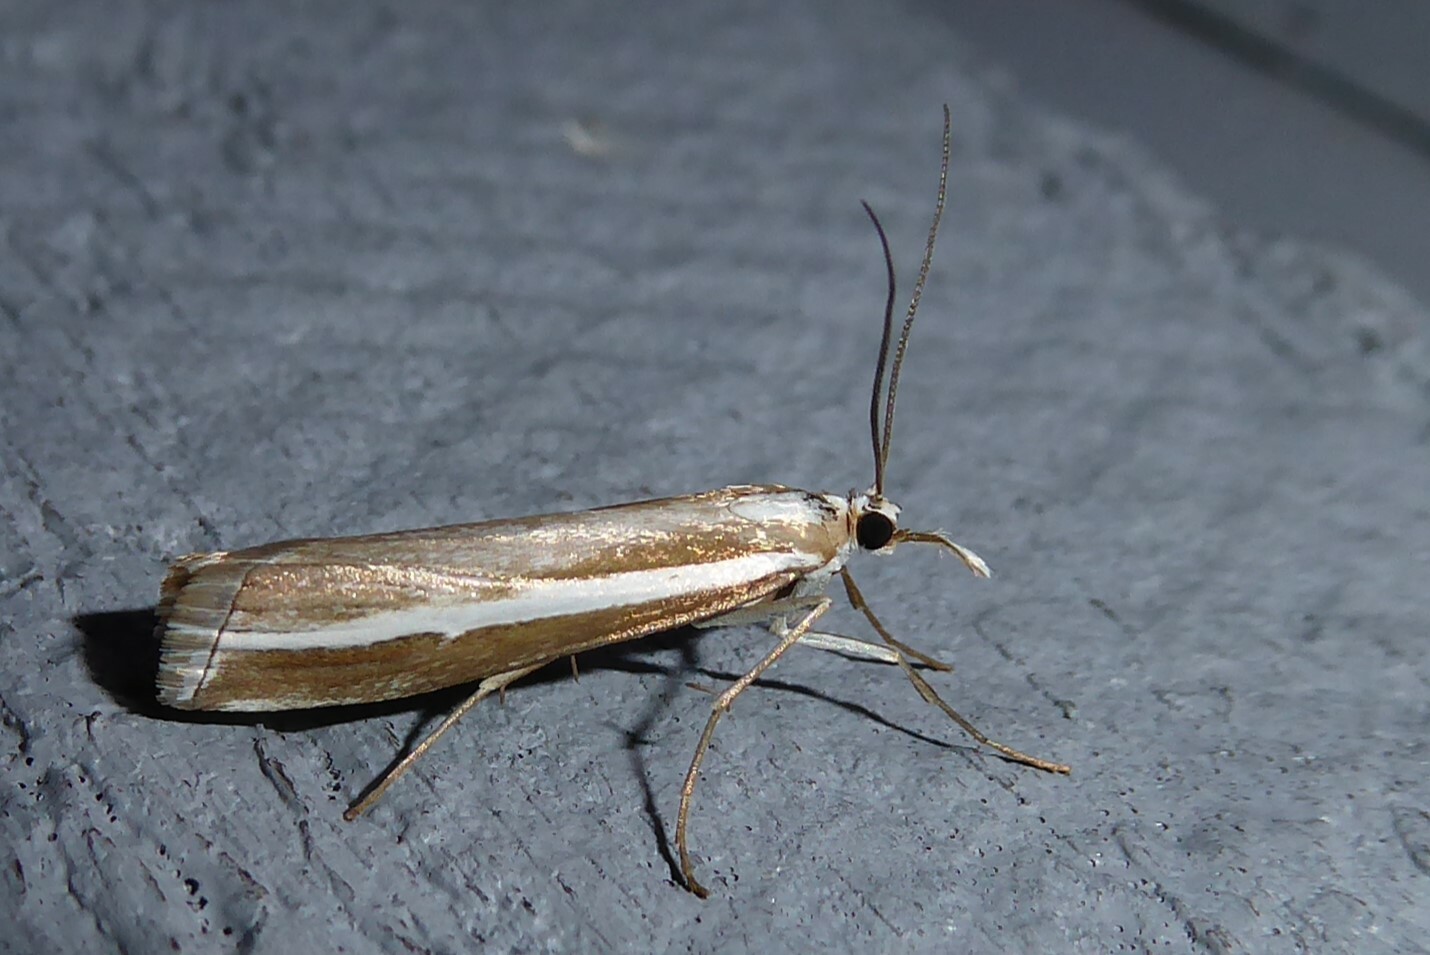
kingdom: Animalia
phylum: Arthropoda
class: Insecta
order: Lepidoptera
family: Crambidae
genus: Orocrambus
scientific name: Orocrambus vittellus
